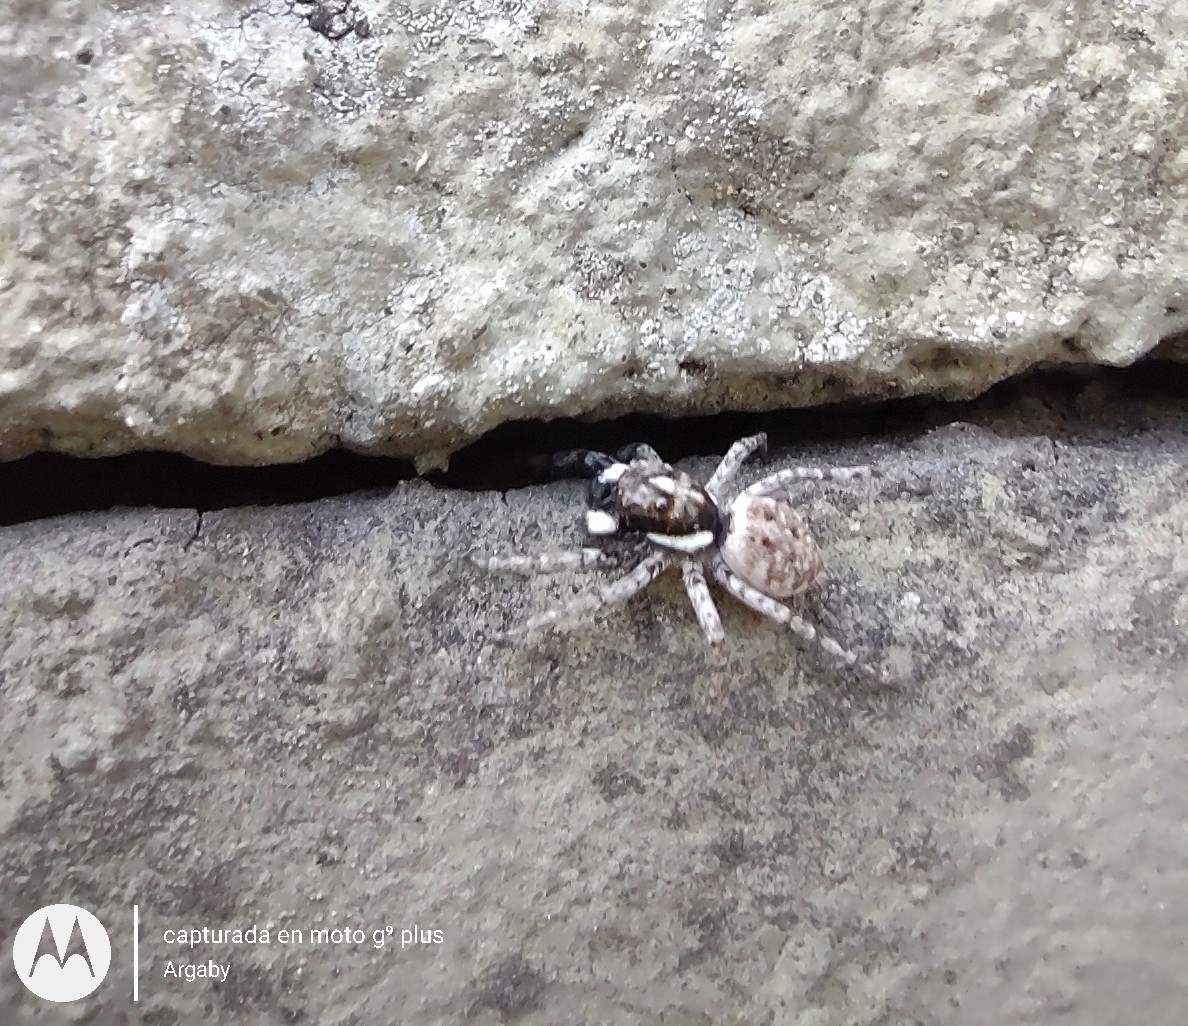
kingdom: Animalia
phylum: Arthropoda
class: Arachnida
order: Araneae
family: Salticidae
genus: Menemerus
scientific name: Menemerus semilimbatus
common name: Jumping spider
